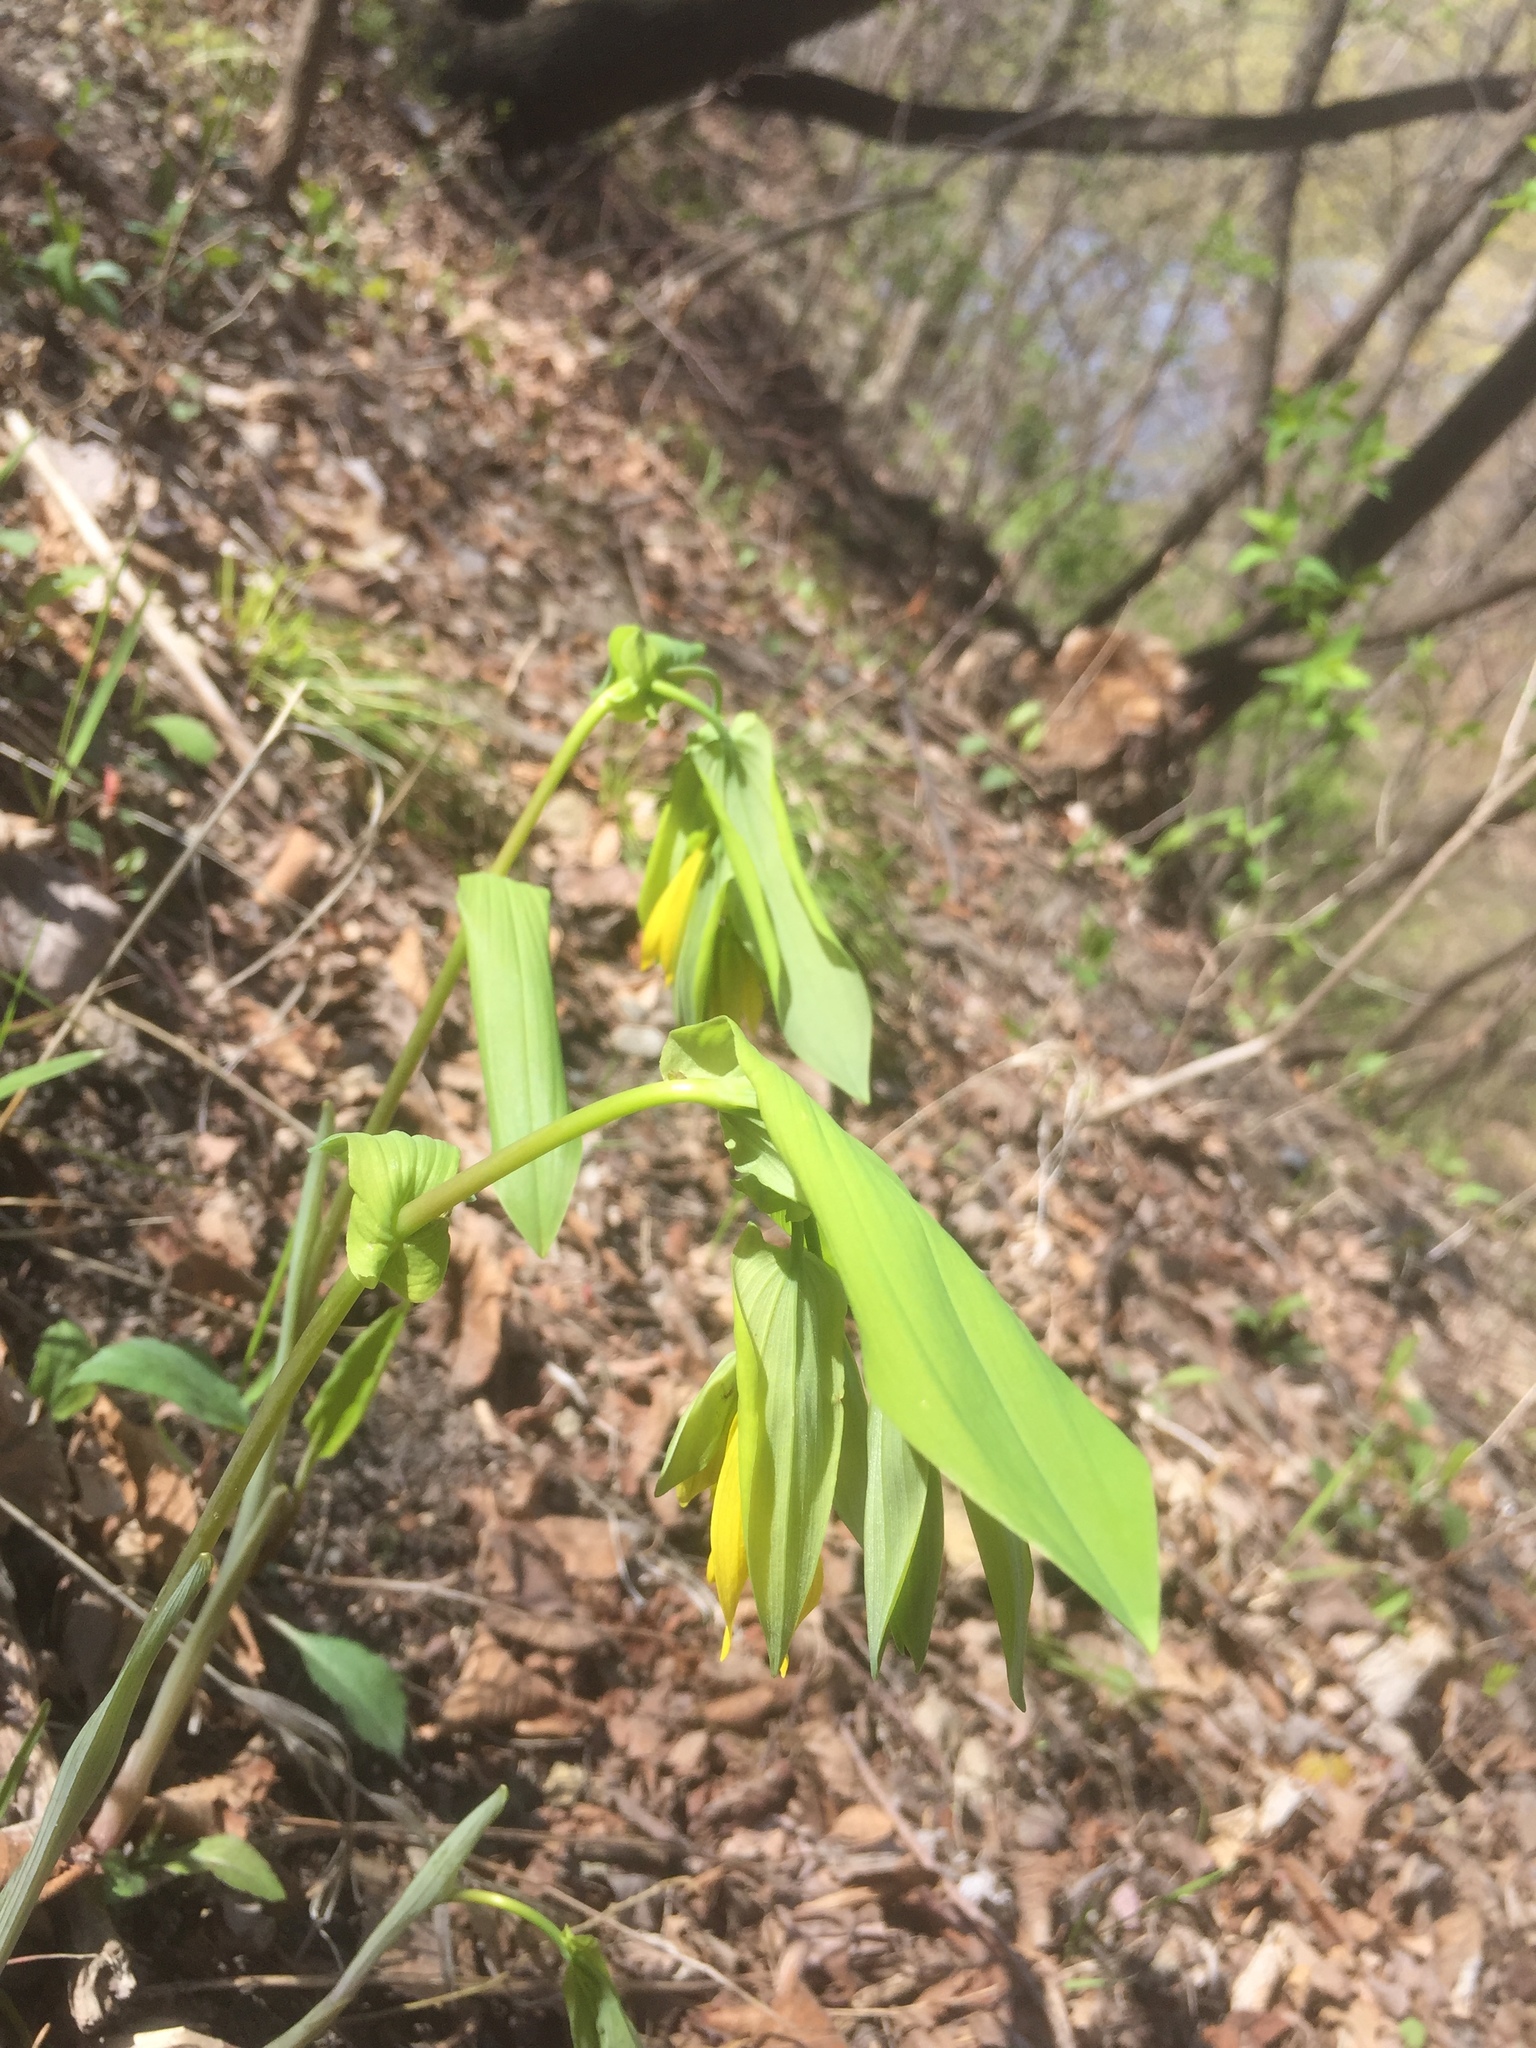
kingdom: Plantae
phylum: Tracheophyta
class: Liliopsida
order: Liliales
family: Colchicaceae
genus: Uvularia
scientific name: Uvularia grandiflora
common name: Bellwort
